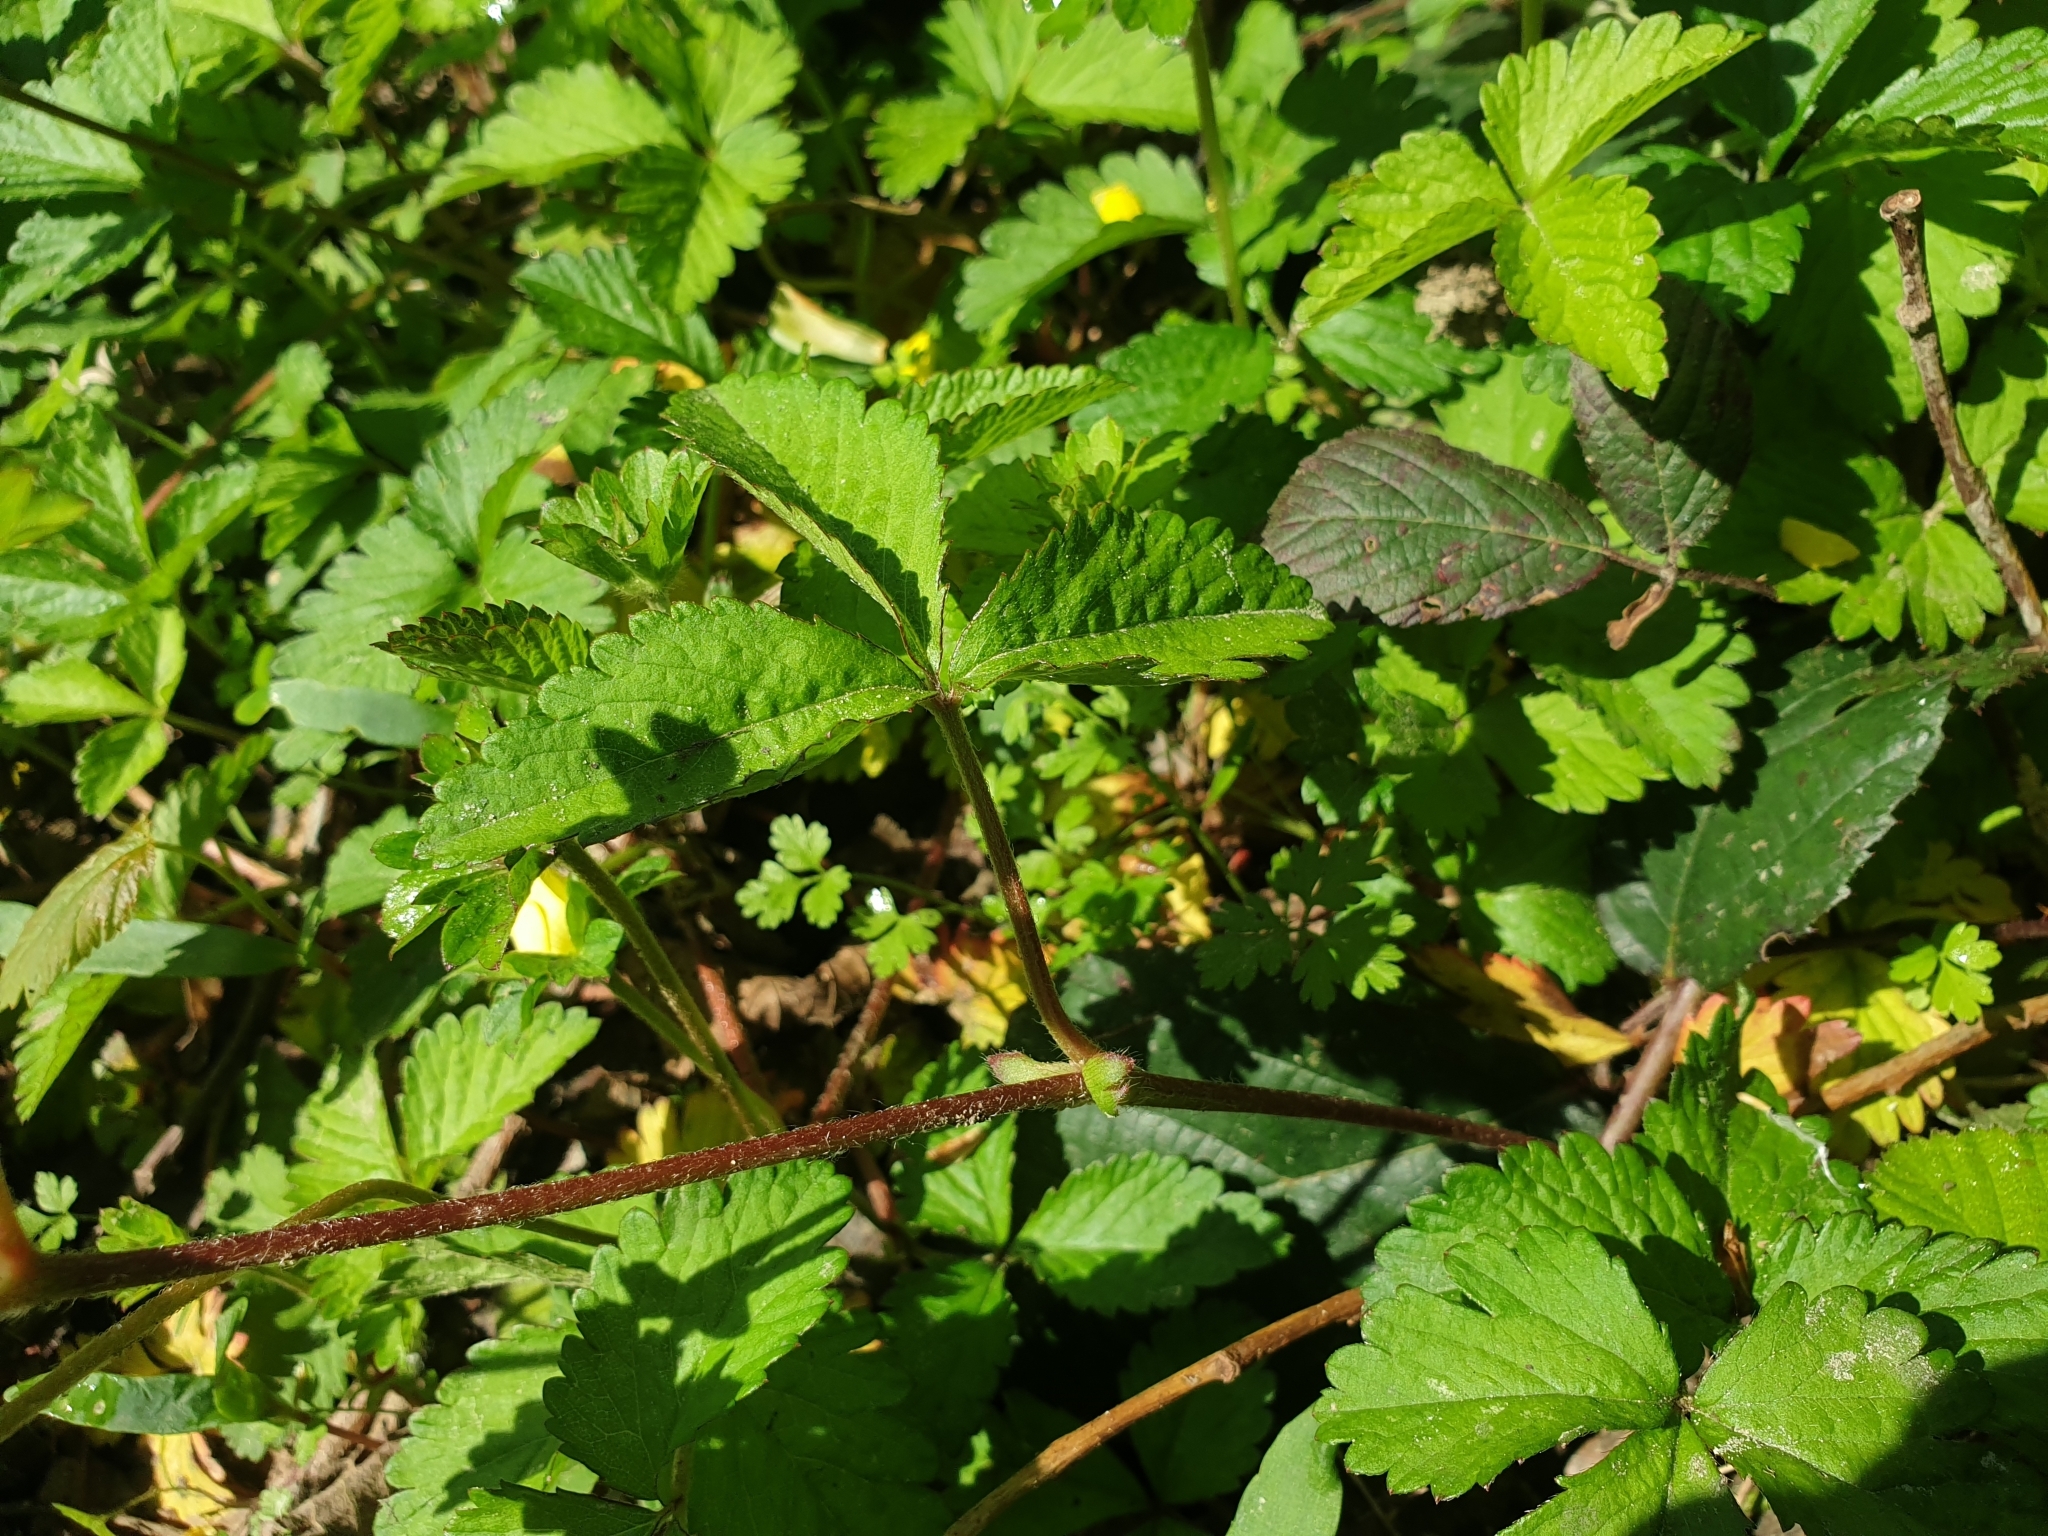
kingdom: Plantae
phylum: Tracheophyta
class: Magnoliopsida
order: Rosales
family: Rosaceae
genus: Potentilla
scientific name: Potentilla indica
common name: Yellow-flowered strawberry
